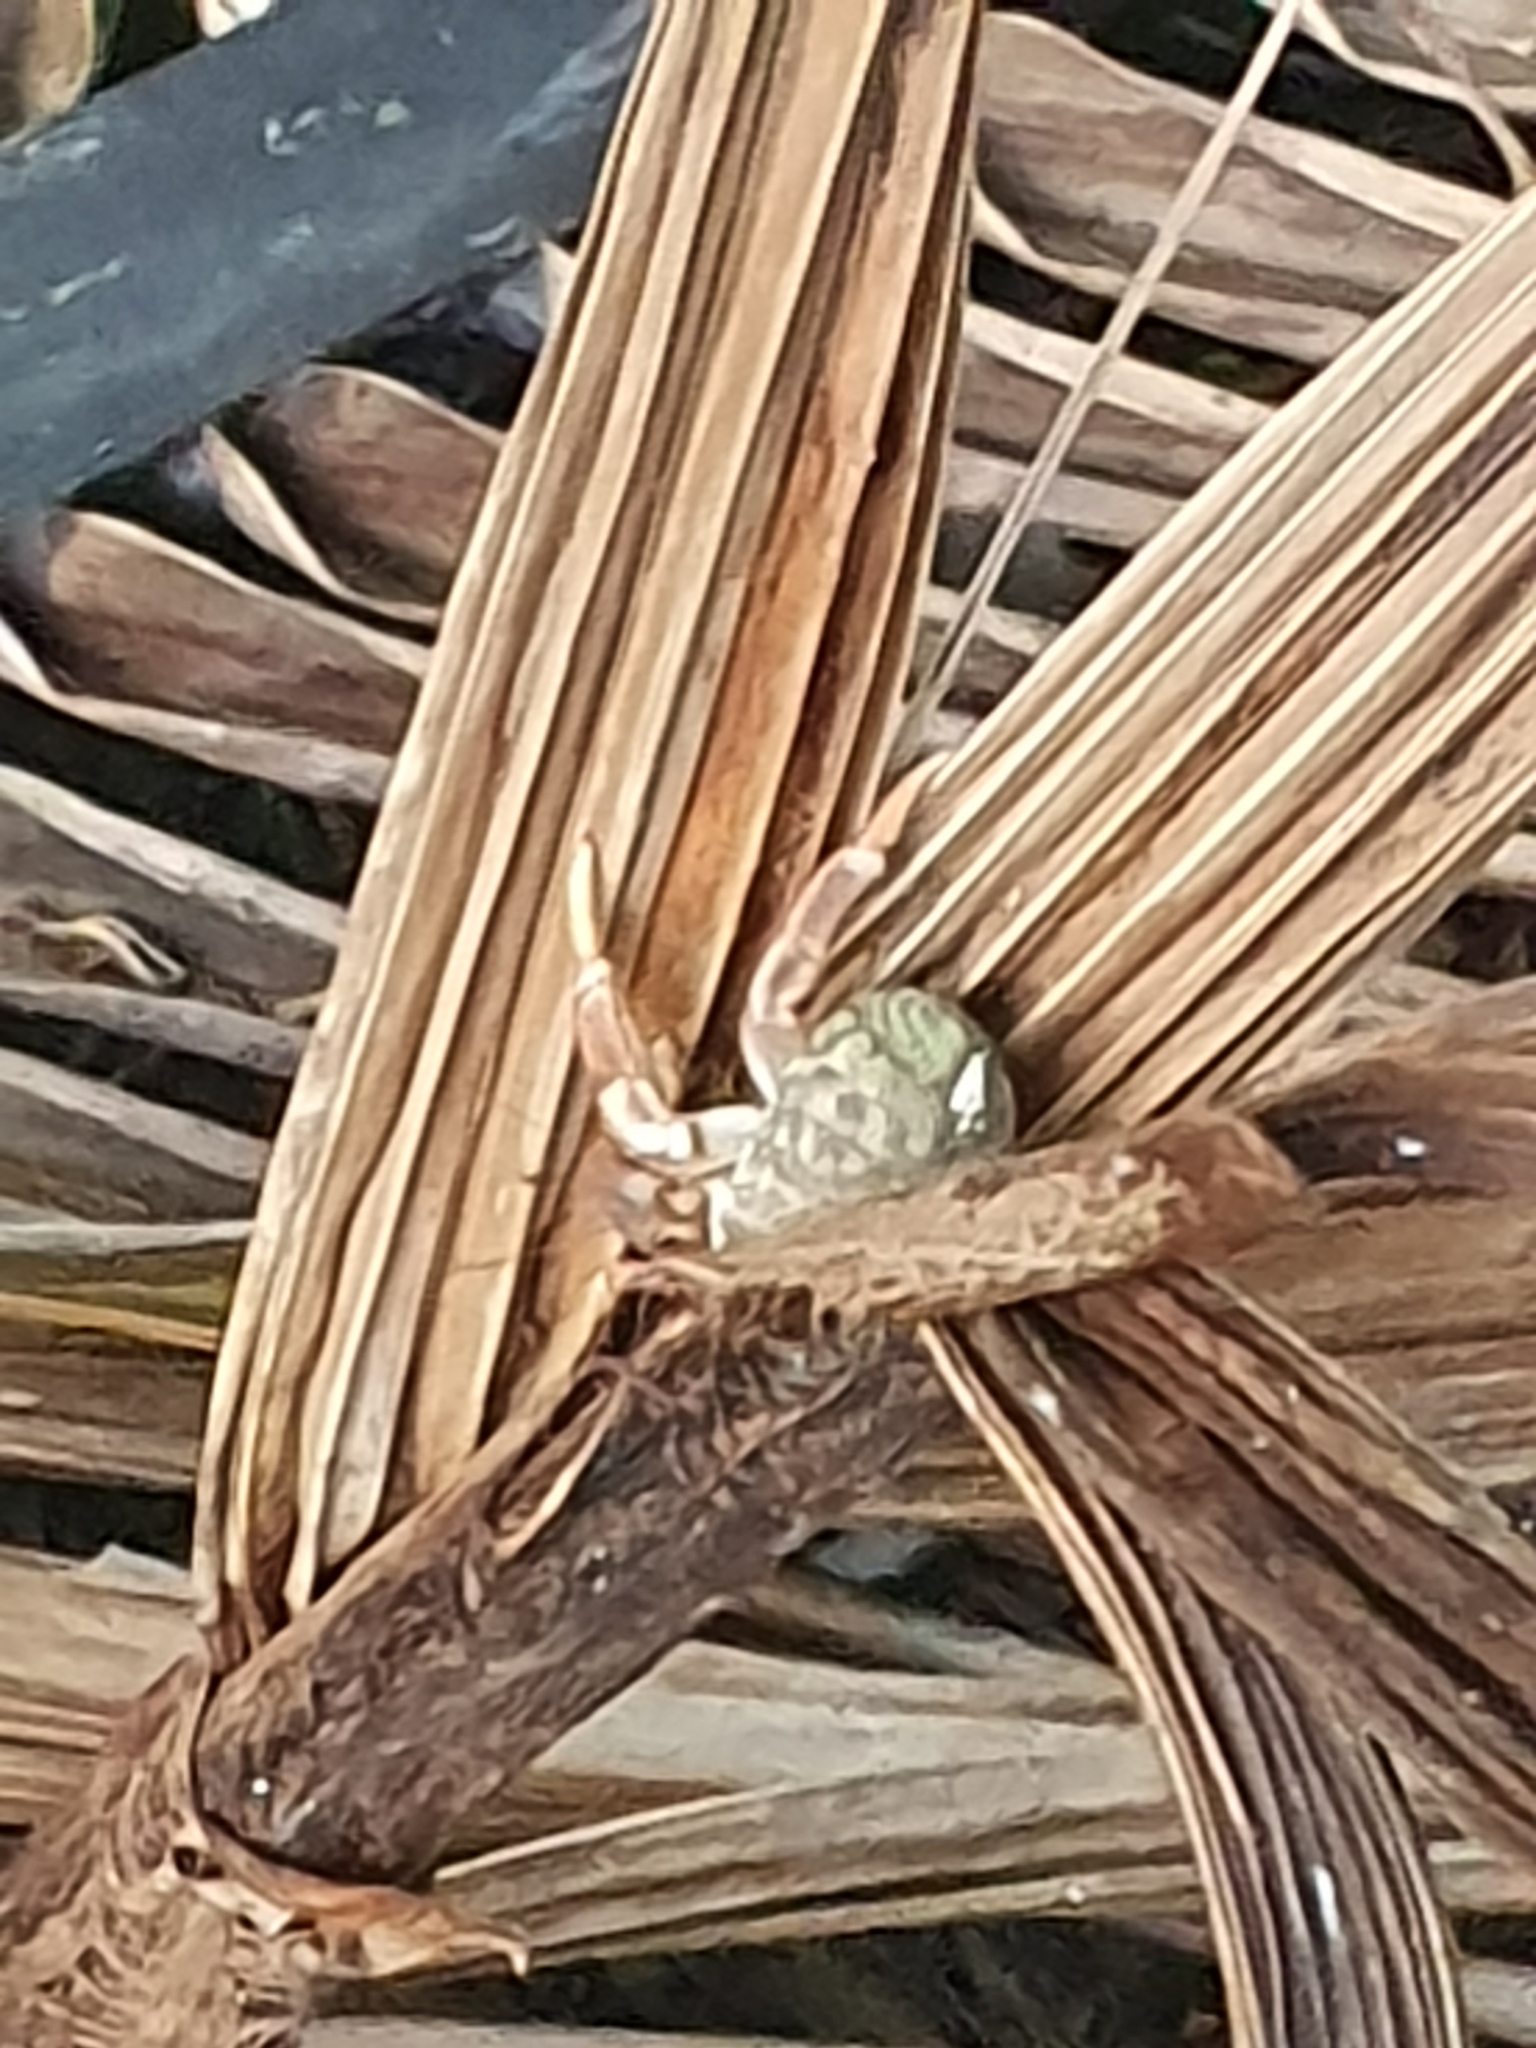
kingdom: Animalia
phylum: Arthropoda
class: Malacostraca
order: Decapoda
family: Coenobitidae
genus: Coenobita
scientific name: Coenobita clypeatus
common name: Caribbean hermit crab
